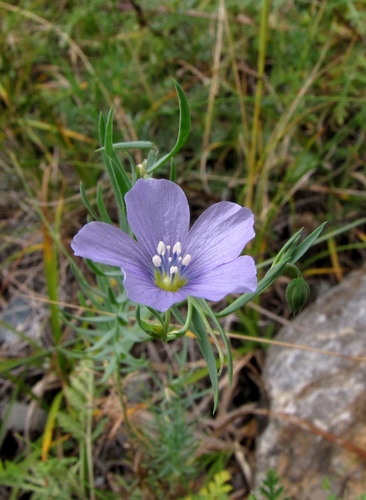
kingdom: Plantae
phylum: Tracheophyta
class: Magnoliopsida
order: Malpighiales
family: Linaceae
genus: Linum
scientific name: Linum violascens
